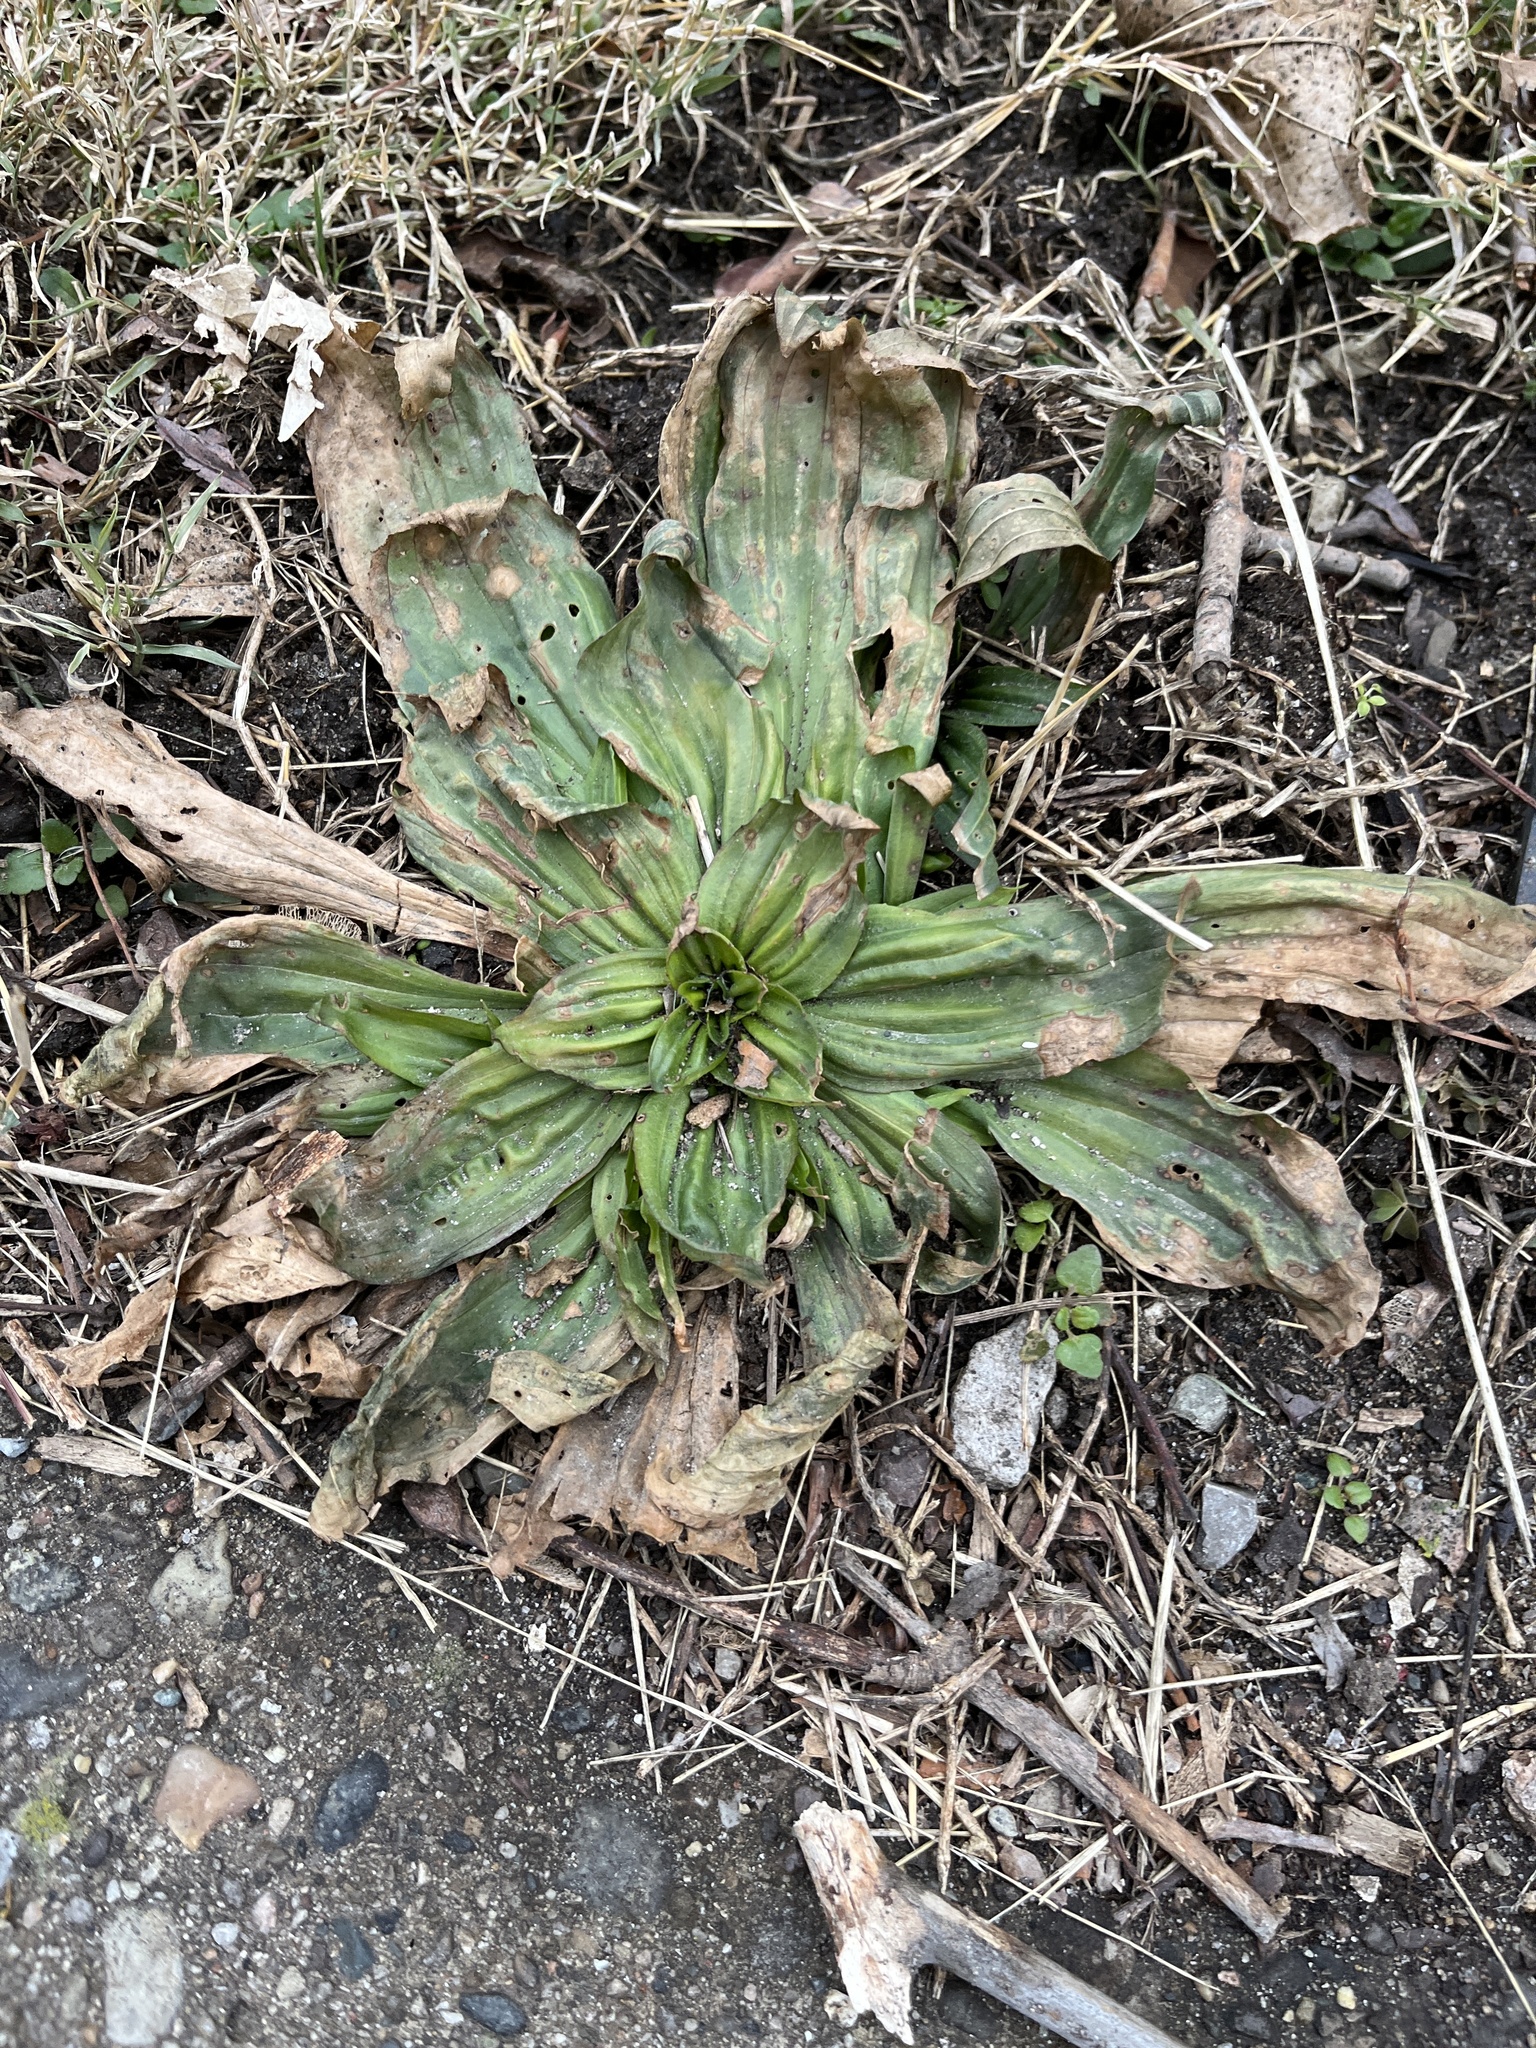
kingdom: Plantae
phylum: Tracheophyta
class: Magnoliopsida
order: Lamiales
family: Plantaginaceae
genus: Plantago
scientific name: Plantago lanceolata
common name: Ribwort plantain
